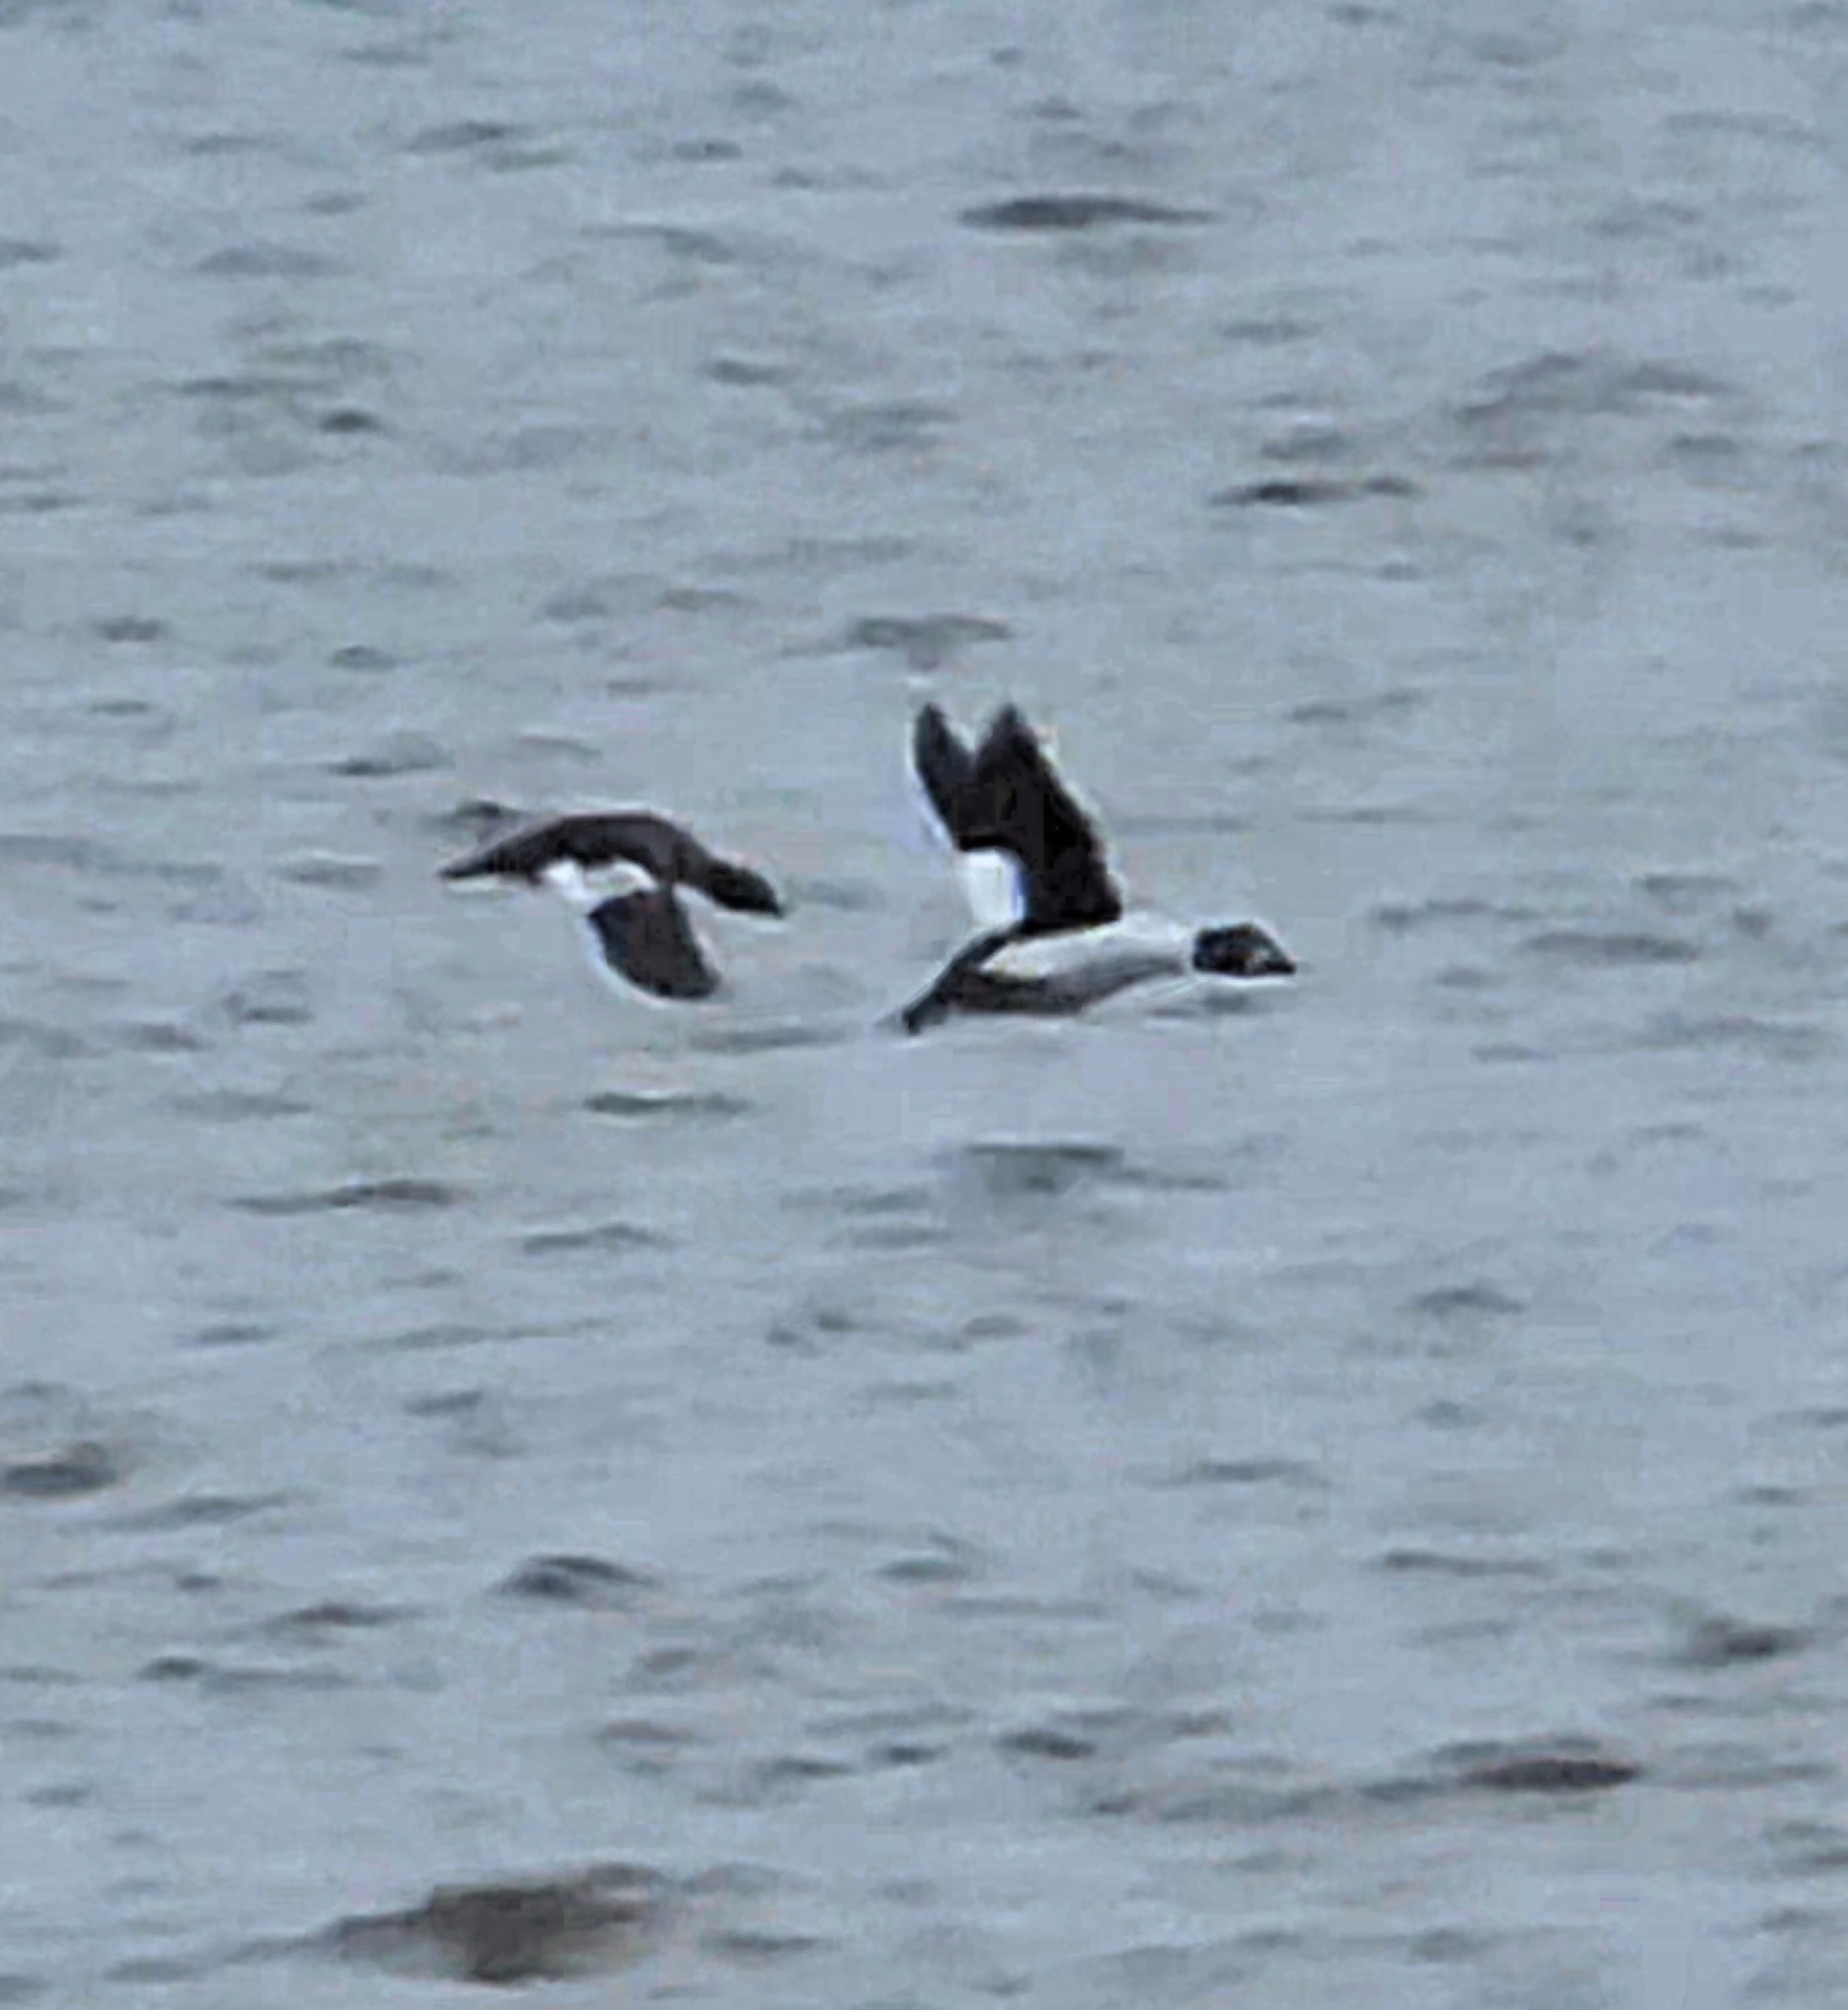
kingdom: Animalia
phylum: Chordata
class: Aves
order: Anseriformes
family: Anatidae
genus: Bucephala
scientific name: Bucephala clangula
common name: Common goldeneye
